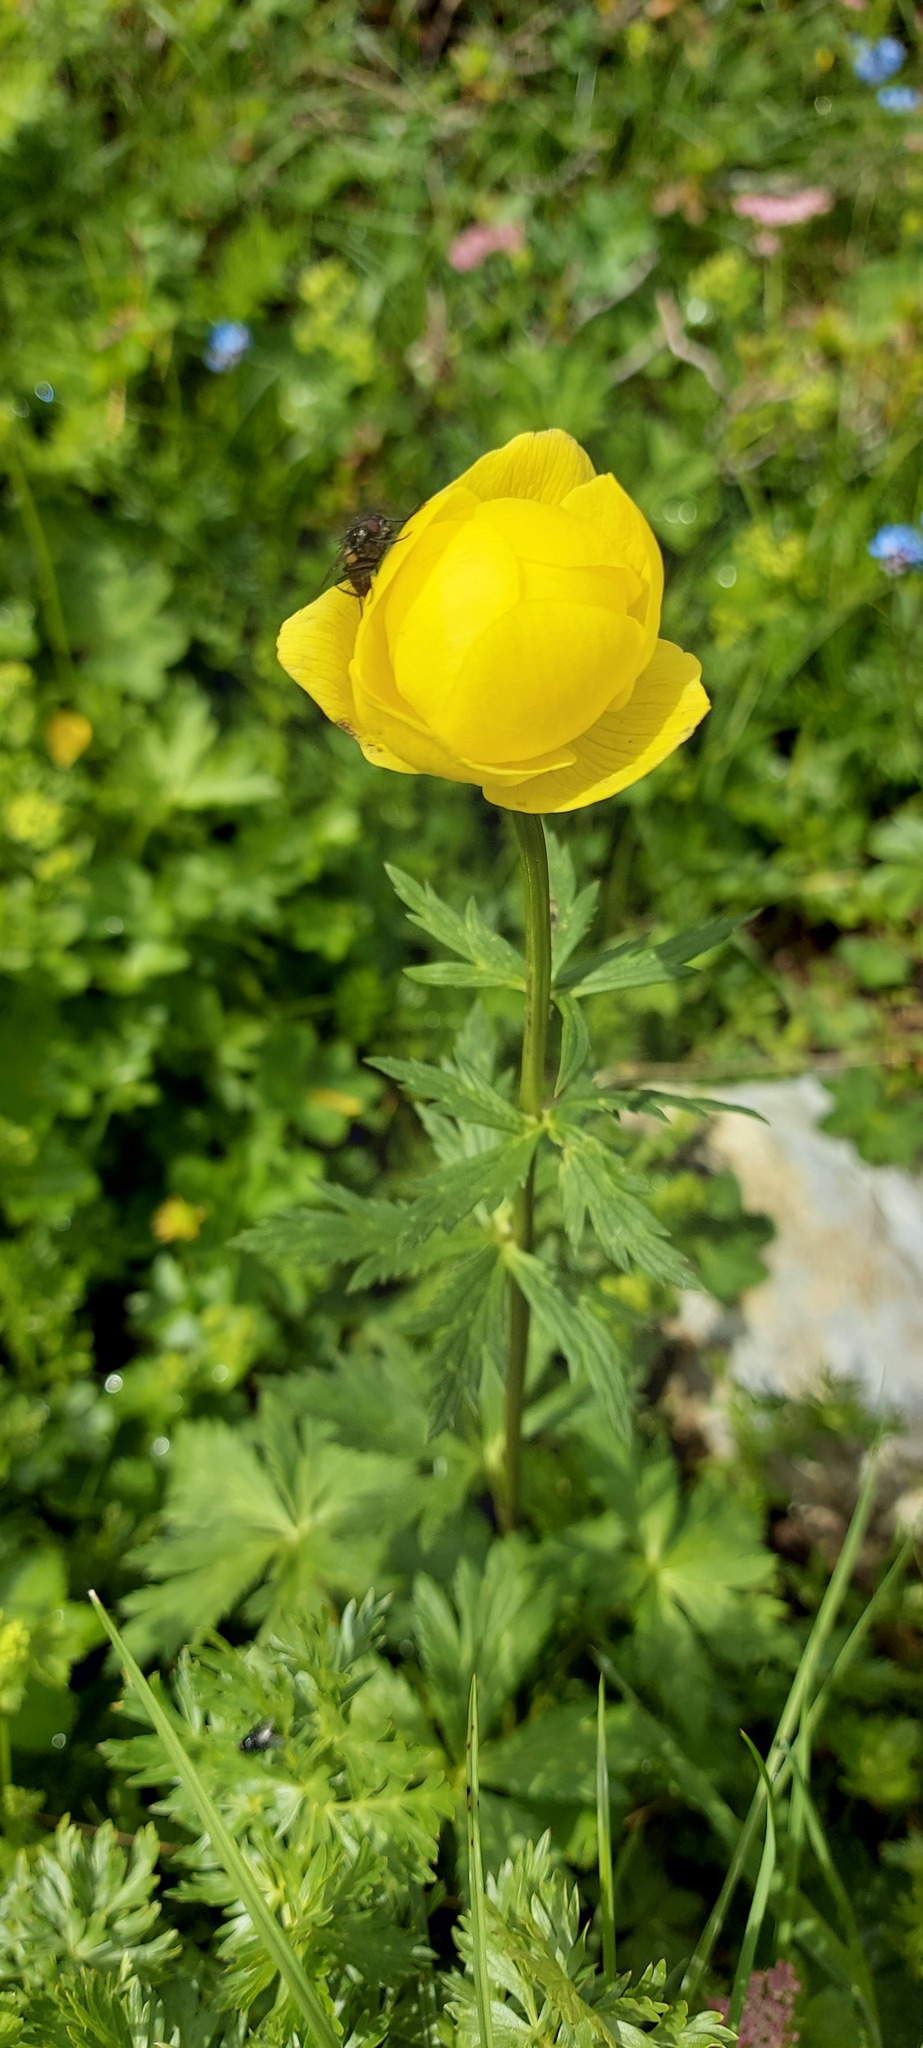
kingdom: Plantae
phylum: Tracheophyta
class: Magnoliopsida
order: Ranunculales
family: Ranunculaceae
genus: Trollius
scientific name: Trollius europaeus
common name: European globeflower
